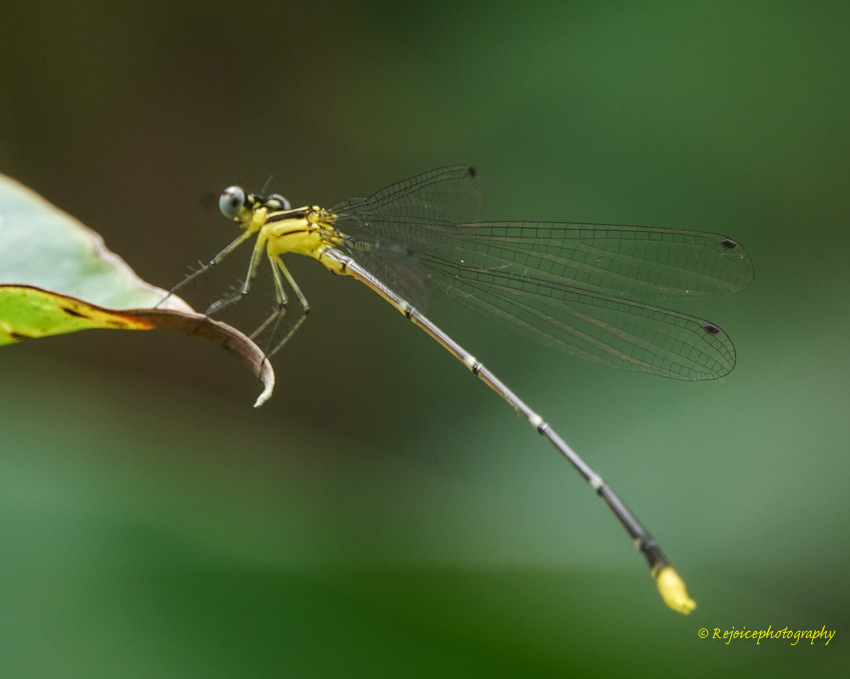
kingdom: Animalia
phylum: Arthropoda
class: Insecta
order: Odonata
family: Platycnemididae
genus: Coeliccia
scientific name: Coeliccia didyma
